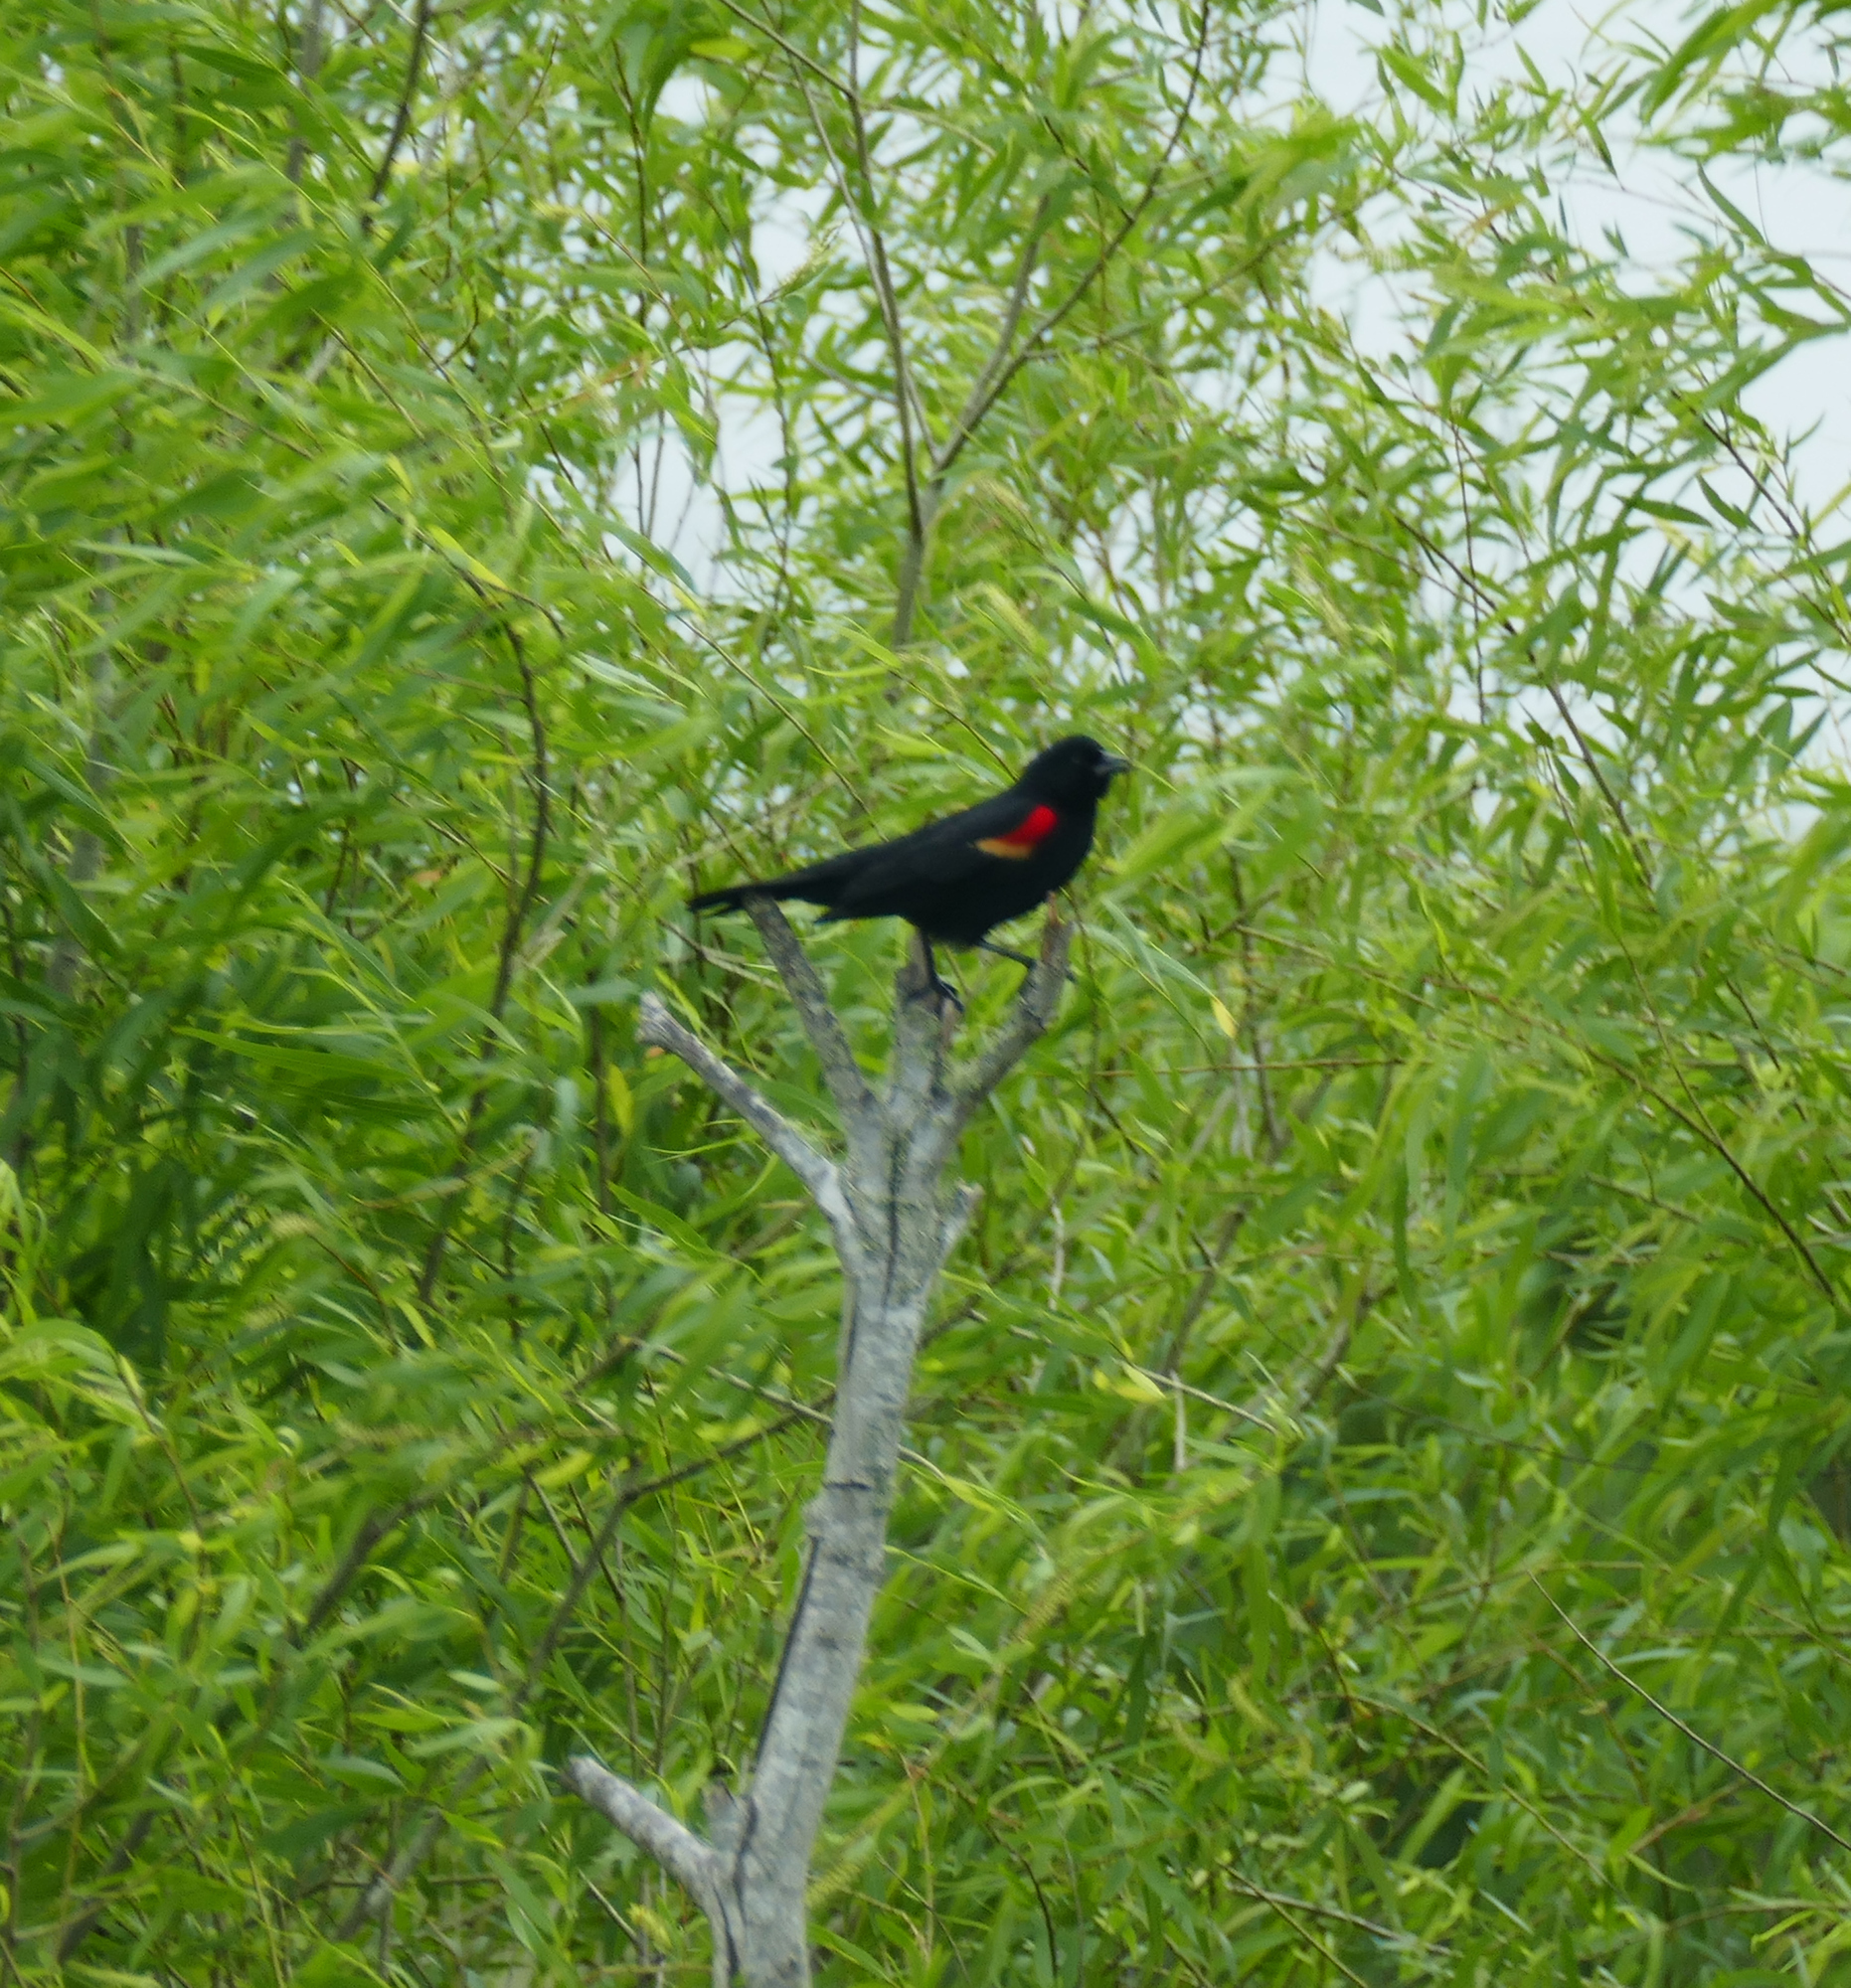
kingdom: Animalia
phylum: Chordata
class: Aves
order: Passeriformes
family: Icteridae
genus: Agelaius
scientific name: Agelaius phoeniceus
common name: Red-winged blackbird
